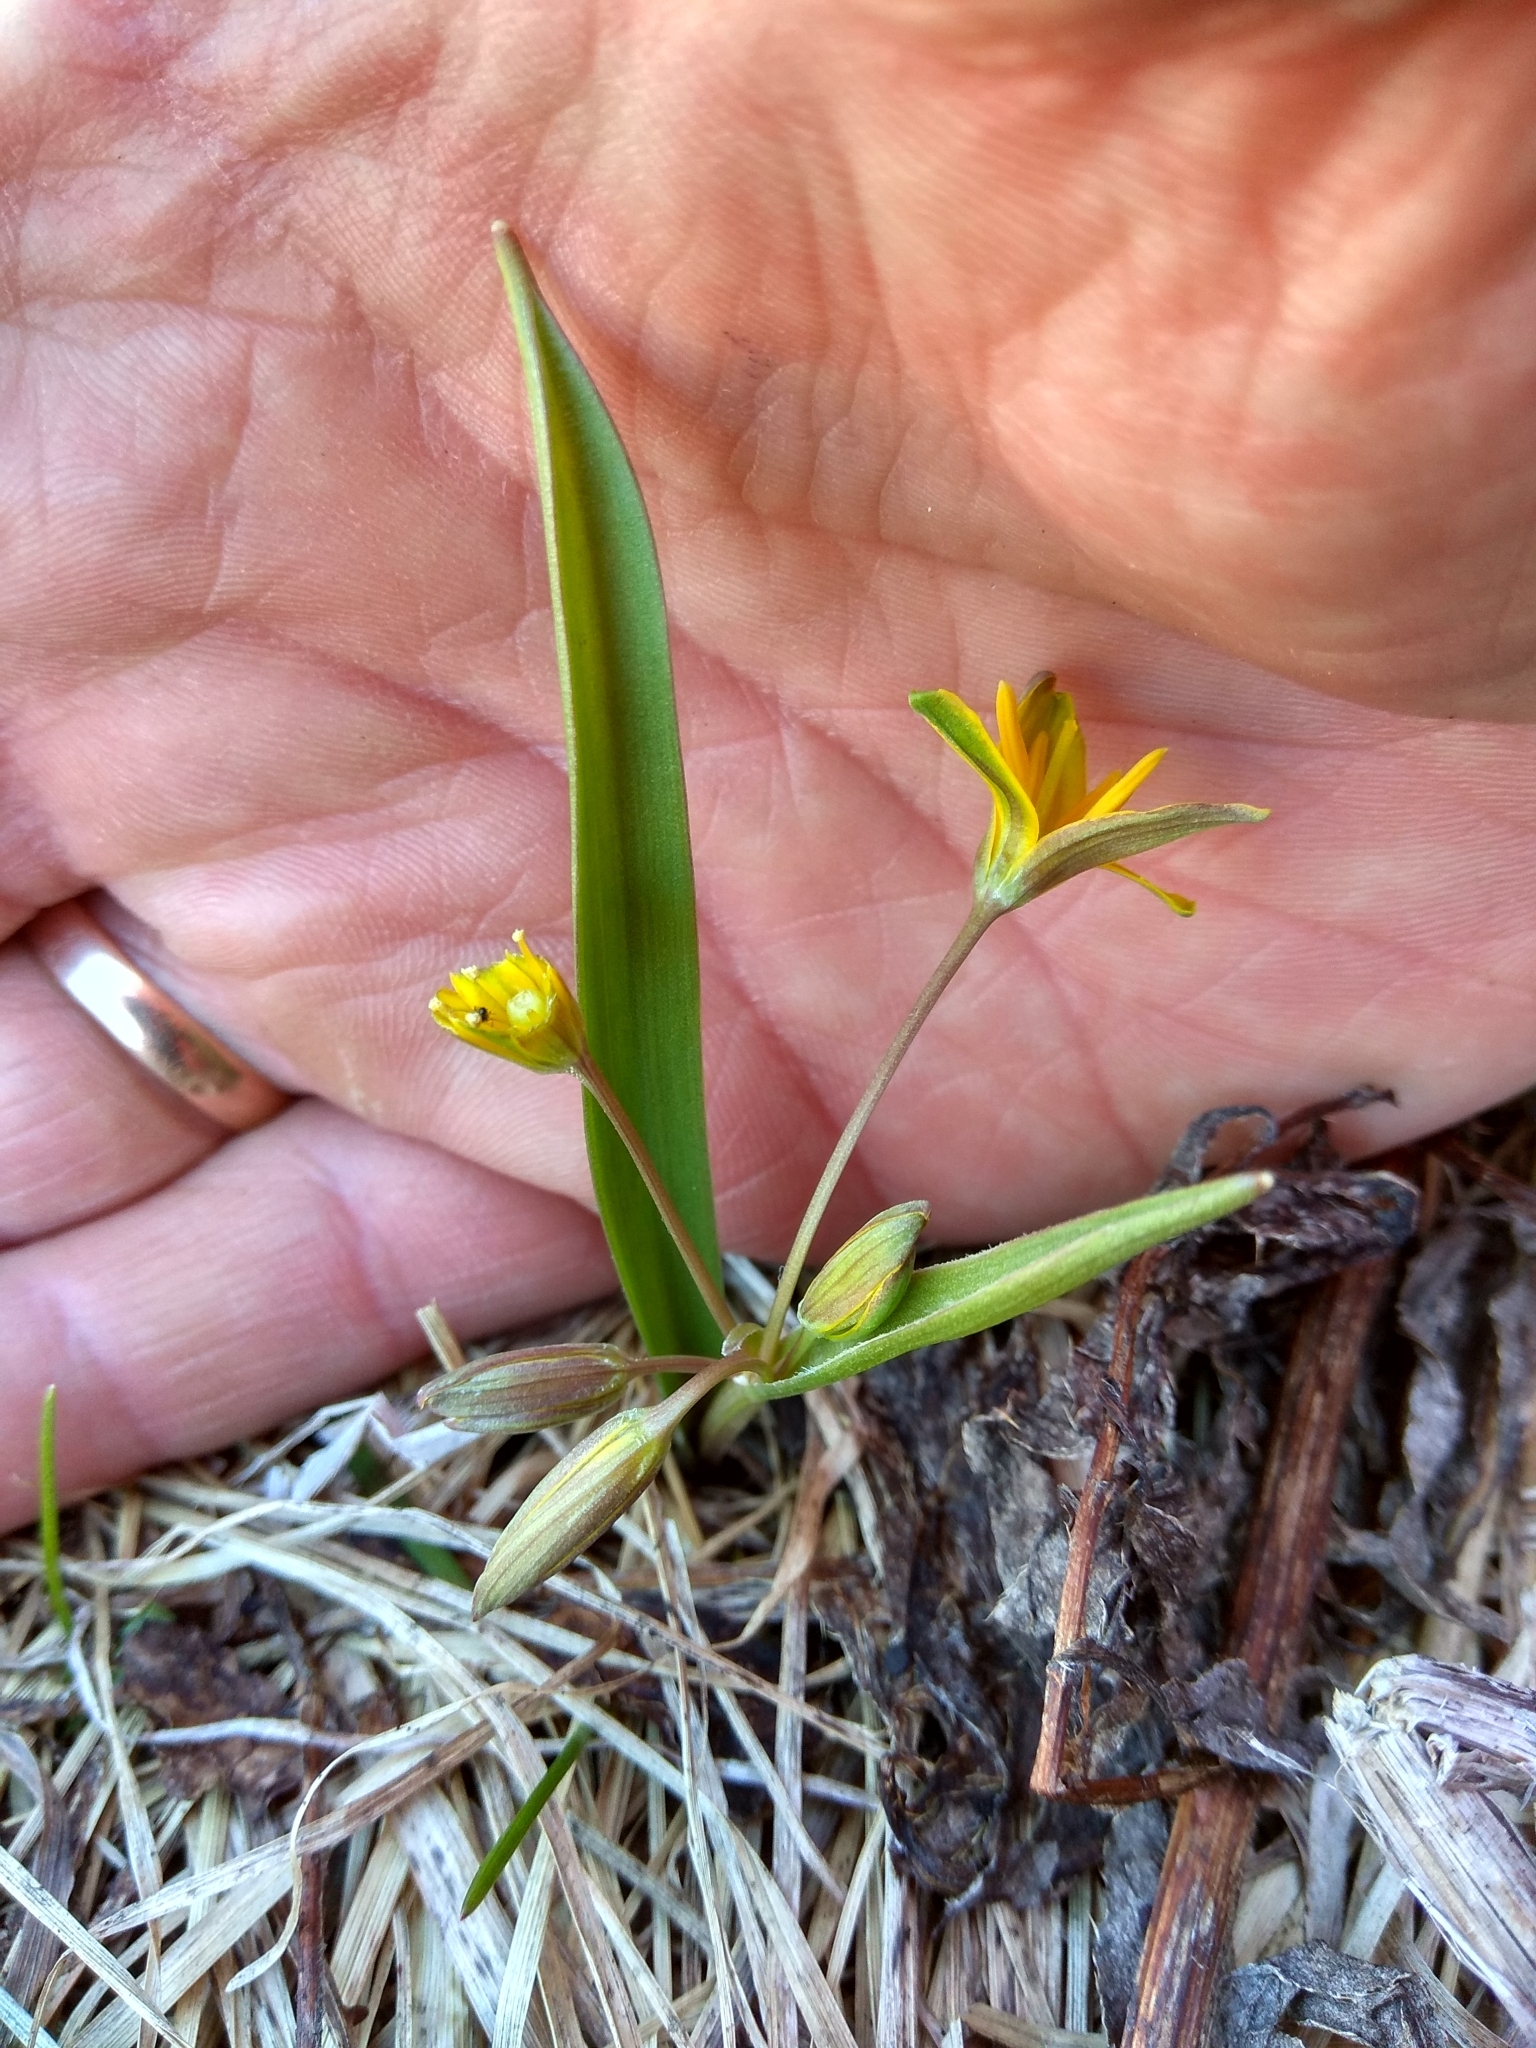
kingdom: Plantae
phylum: Tracheophyta
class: Liliopsida
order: Liliales
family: Liliaceae
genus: Gagea
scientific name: Gagea lutea
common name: Yellow star-of-bethlehem
